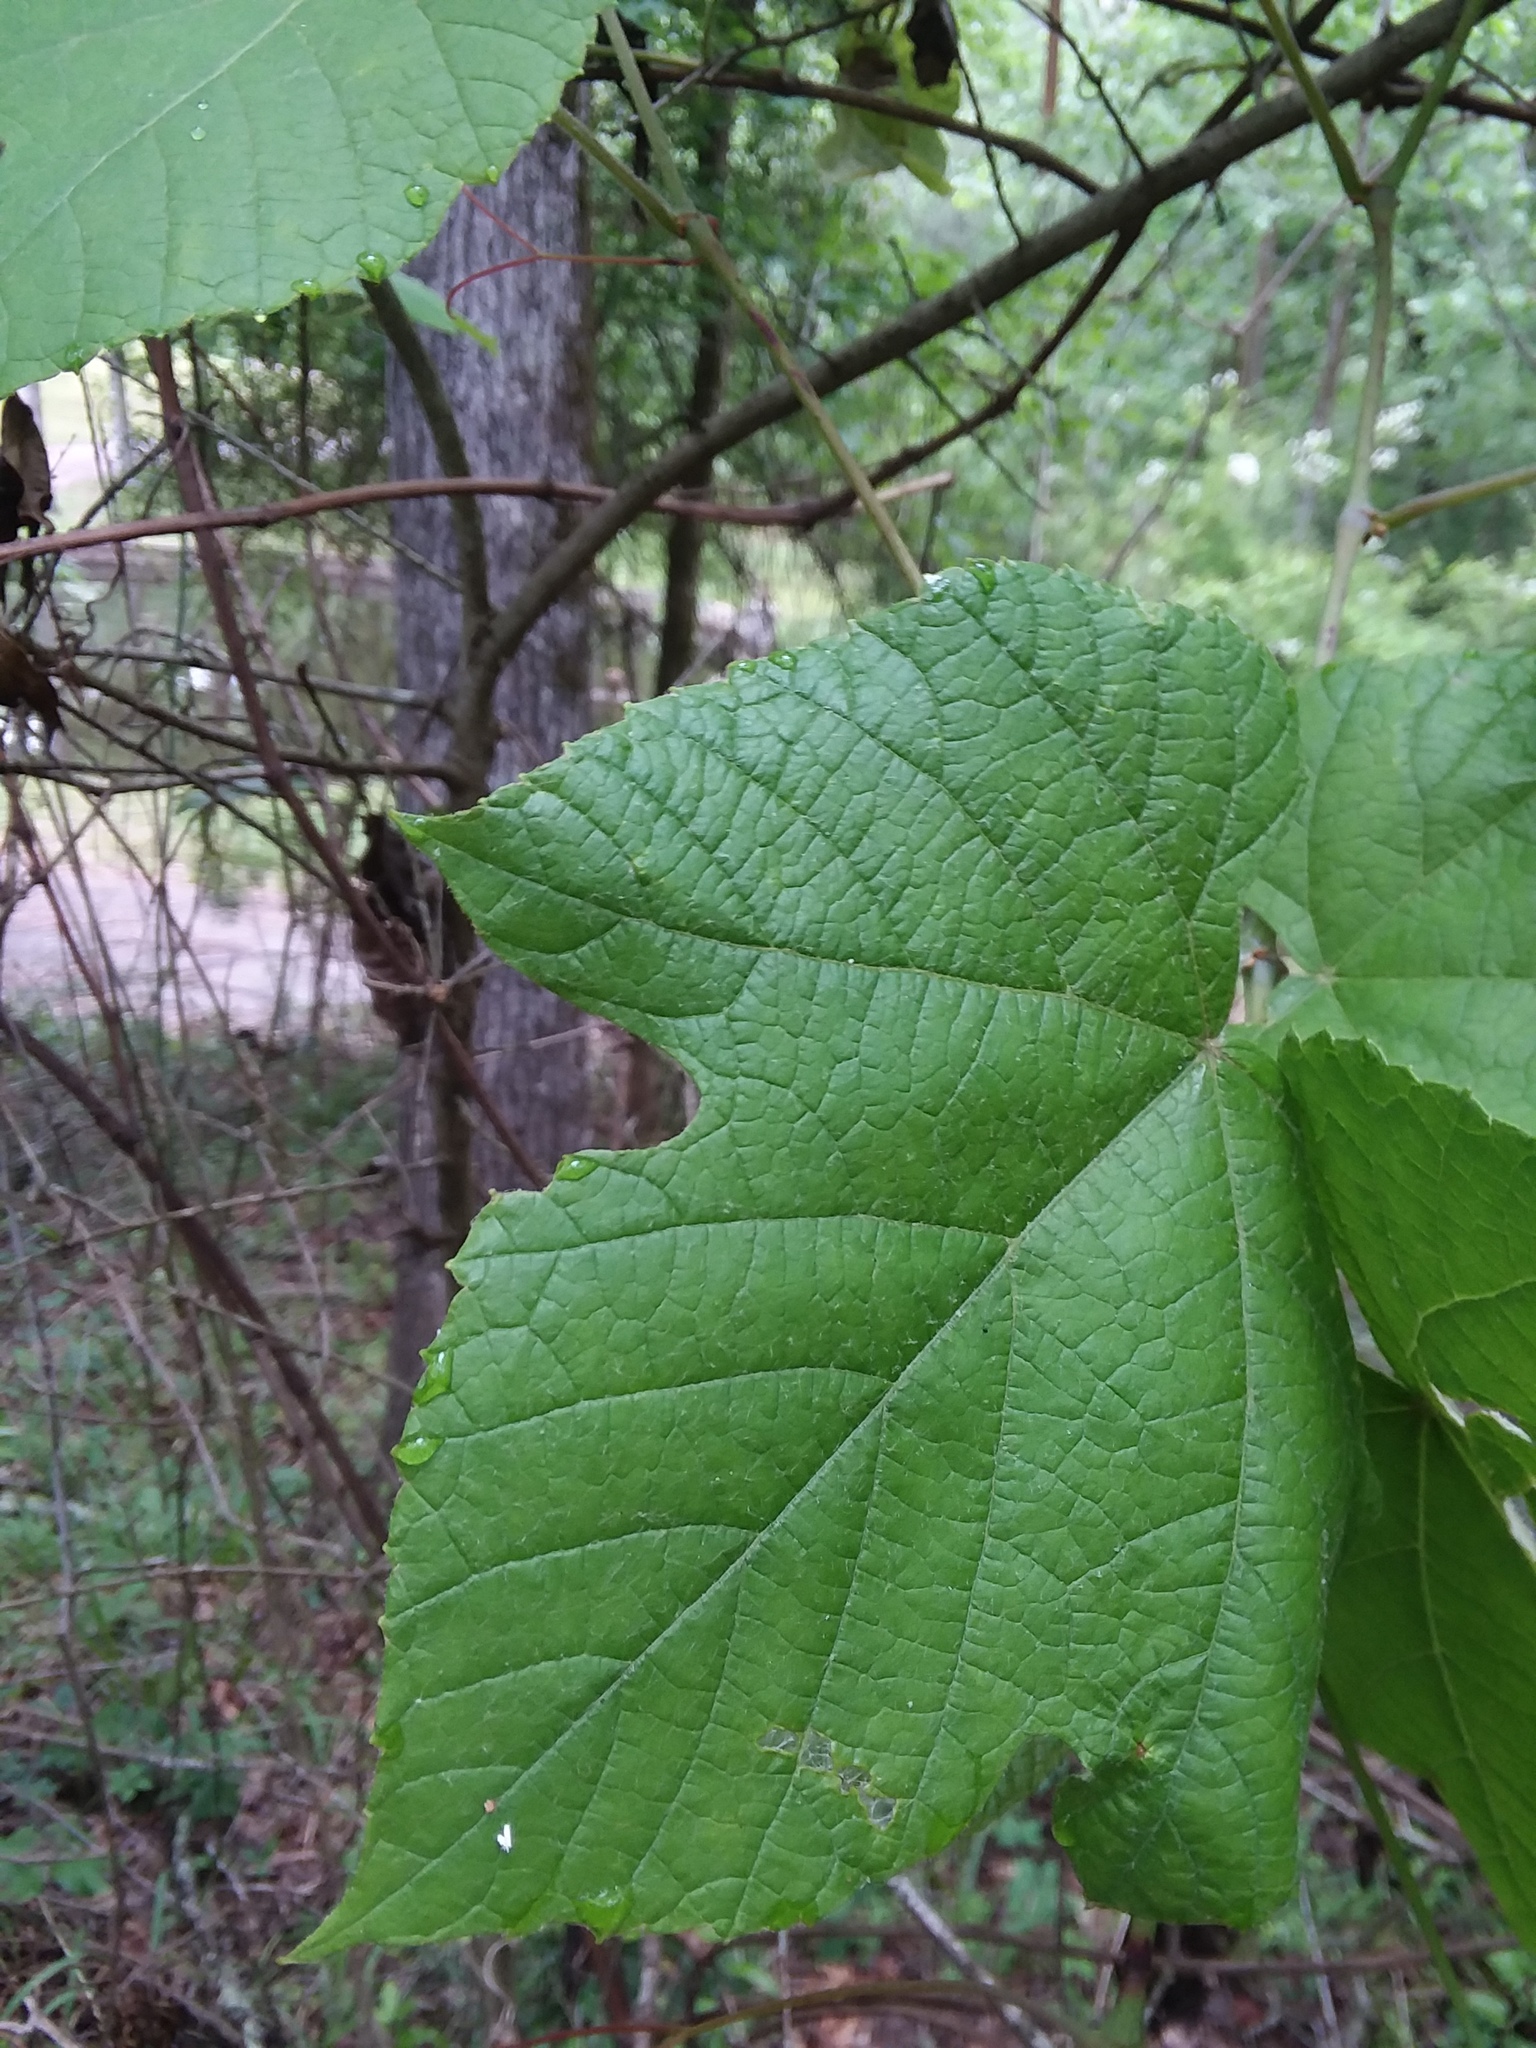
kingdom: Plantae
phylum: Tracheophyta
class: Magnoliopsida
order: Vitales
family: Vitaceae
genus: Vitis
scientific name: Vitis aestivalis
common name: Pigeon grape
